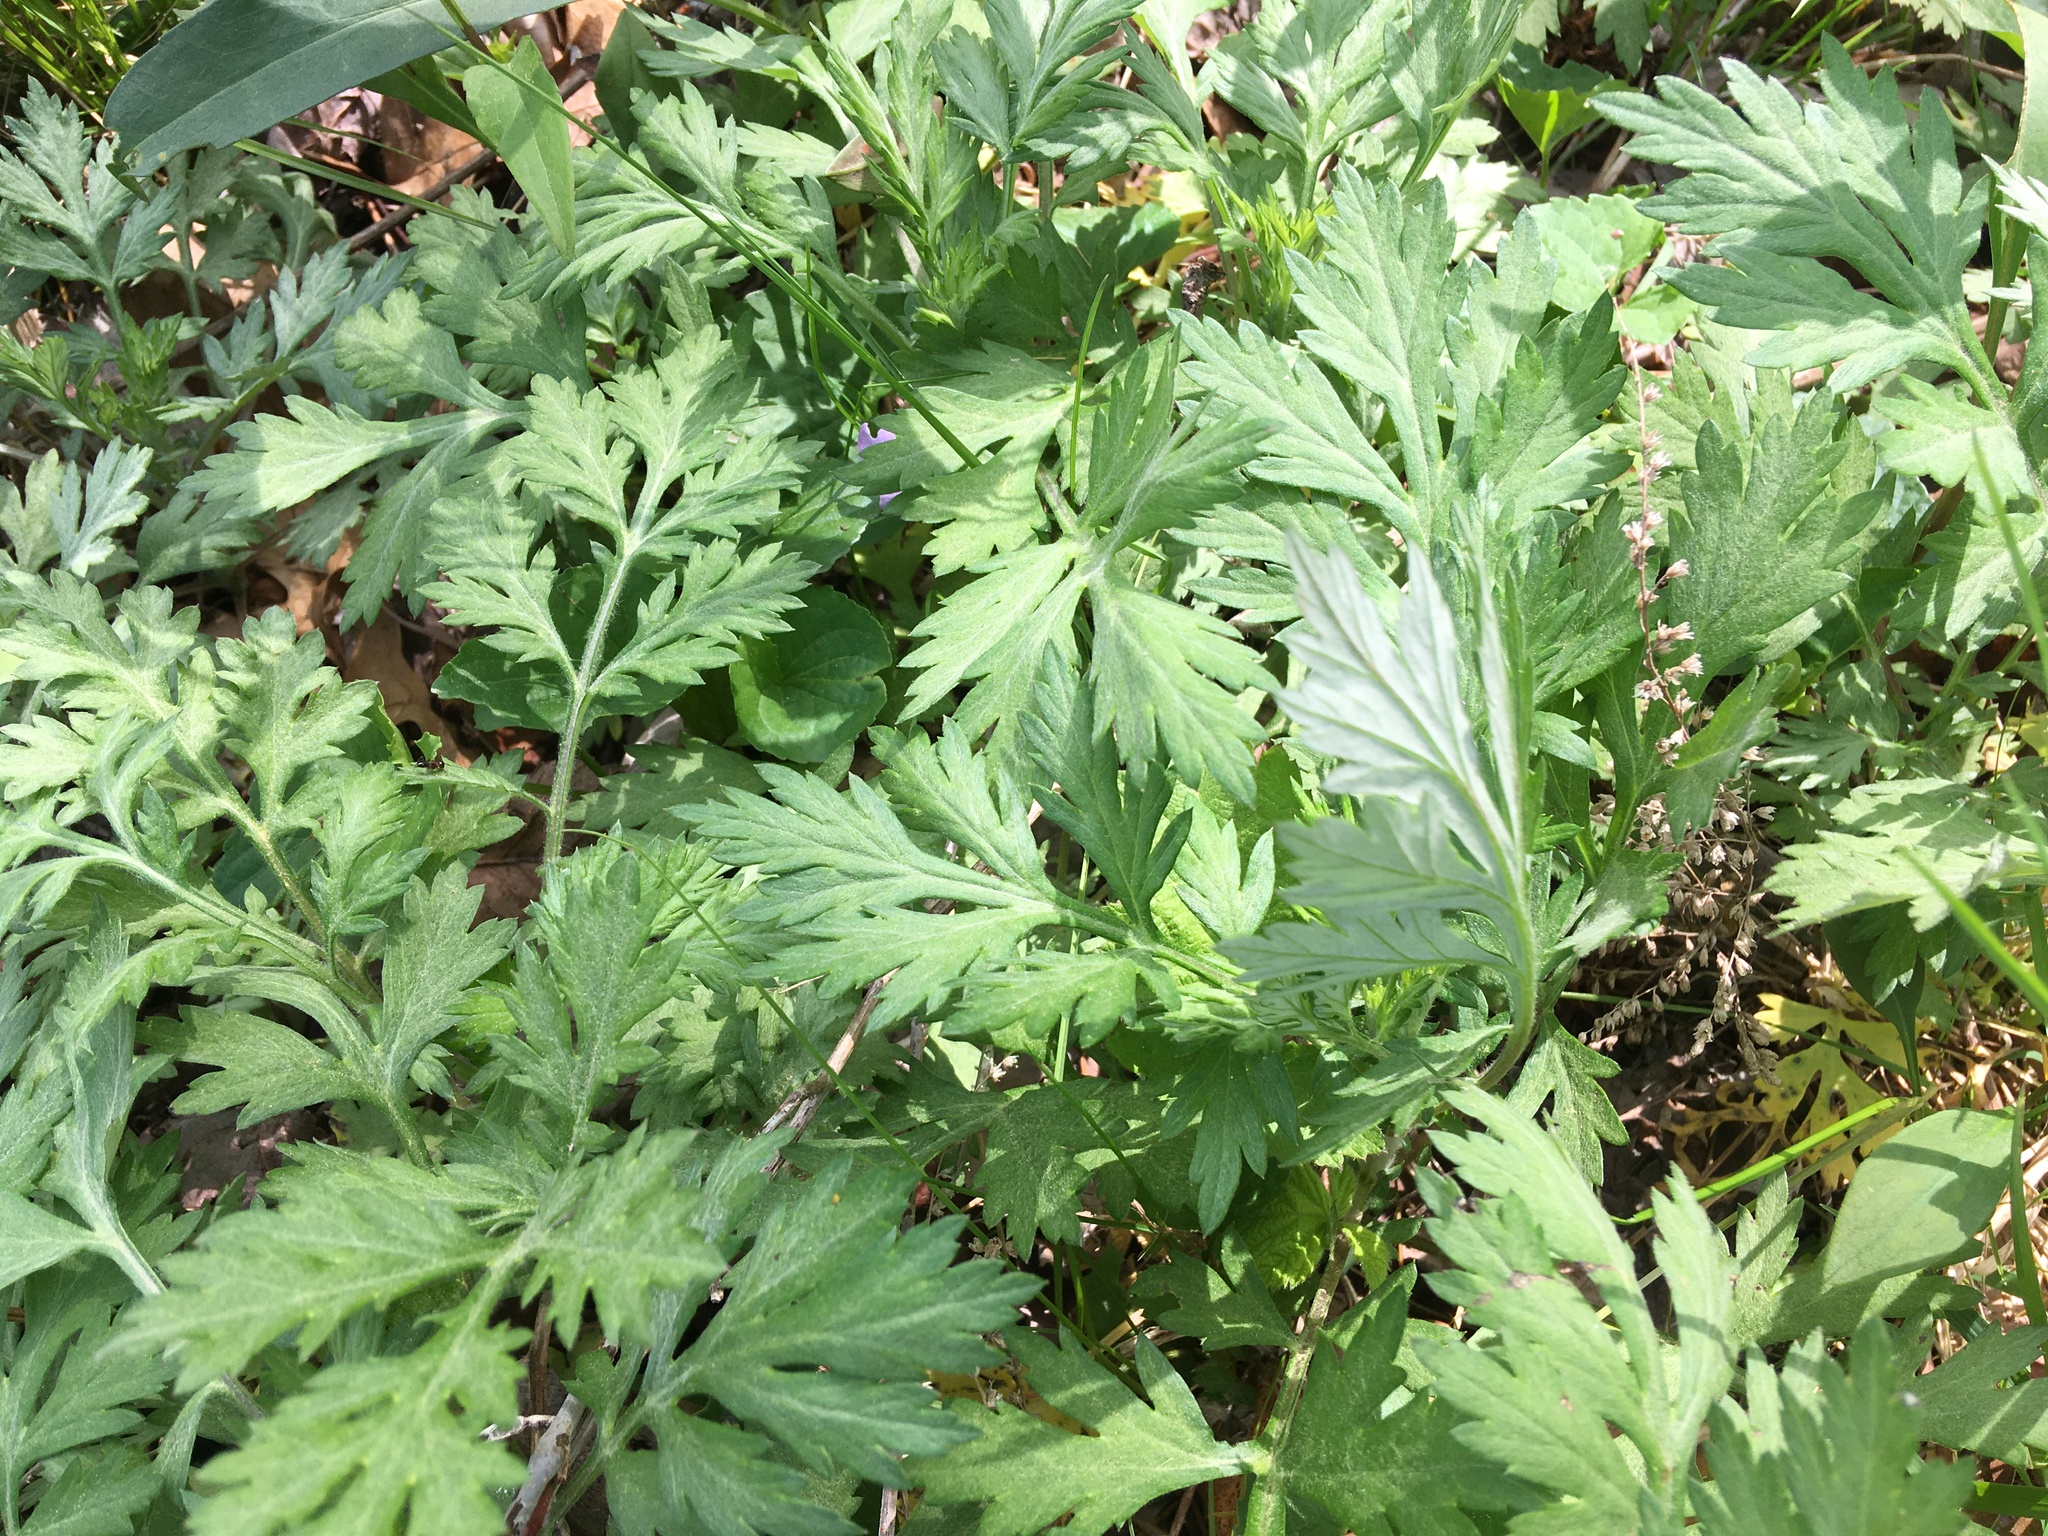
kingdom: Plantae
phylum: Tracheophyta
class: Magnoliopsida
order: Asterales
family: Asteraceae
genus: Artemisia
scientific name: Artemisia vulgaris
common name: Mugwort
